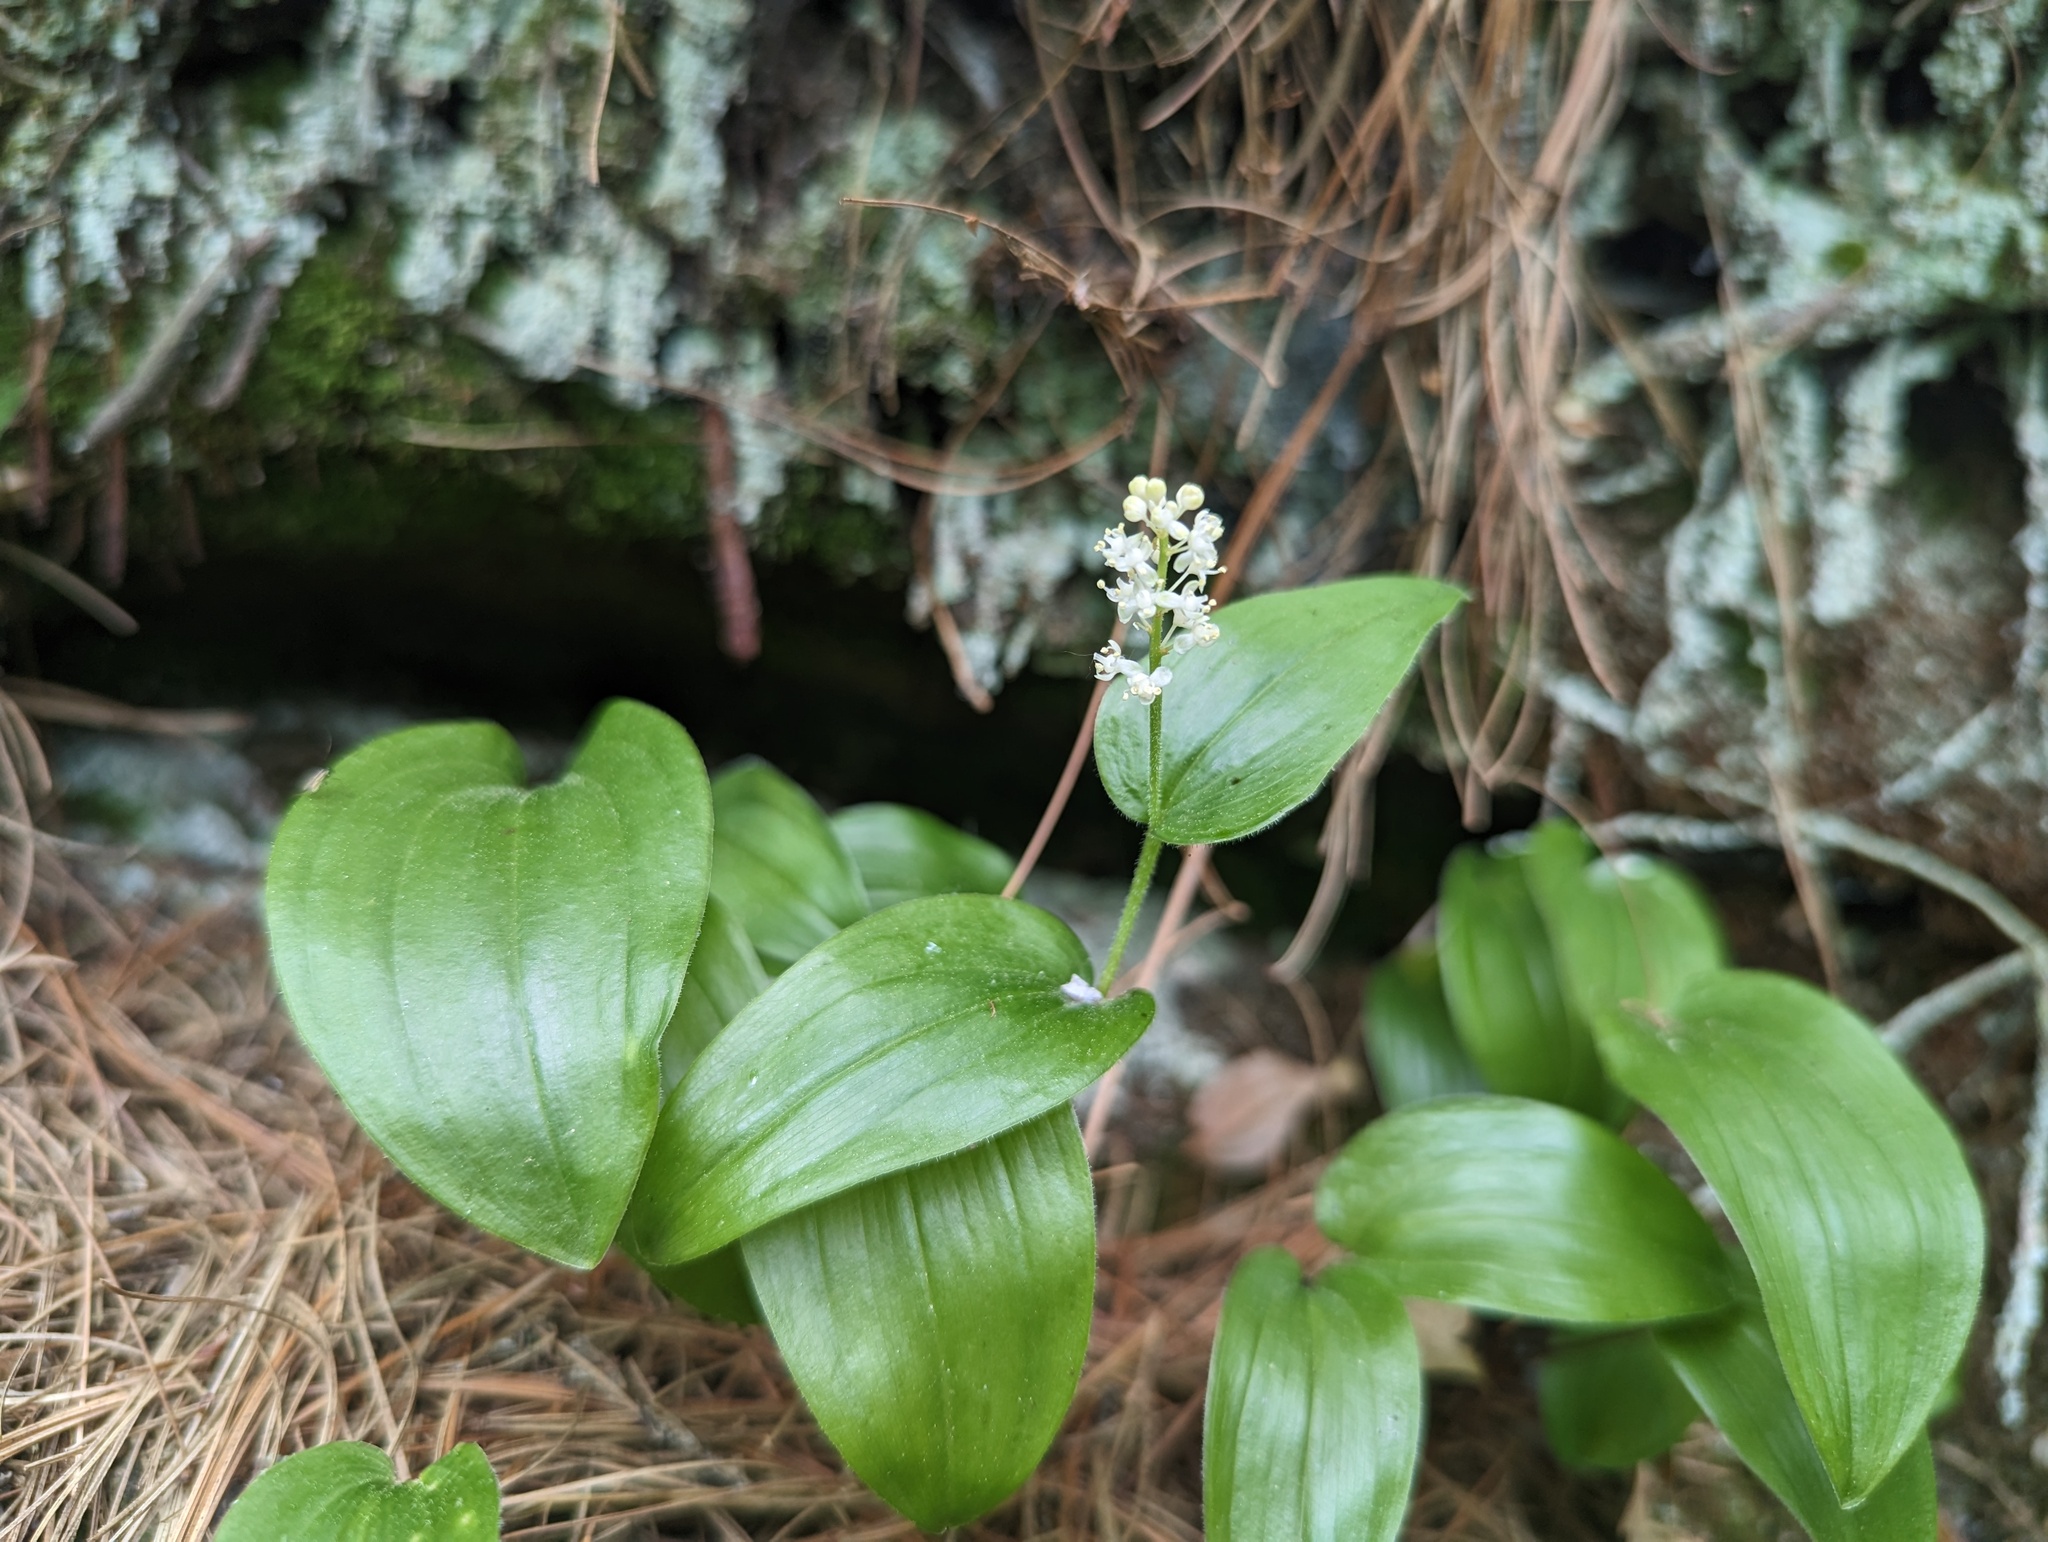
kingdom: Plantae
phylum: Tracheophyta
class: Liliopsida
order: Asparagales
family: Asparagaceae
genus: Maianthemum
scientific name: Maianthemum canadense
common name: False lily-of-the-valley
